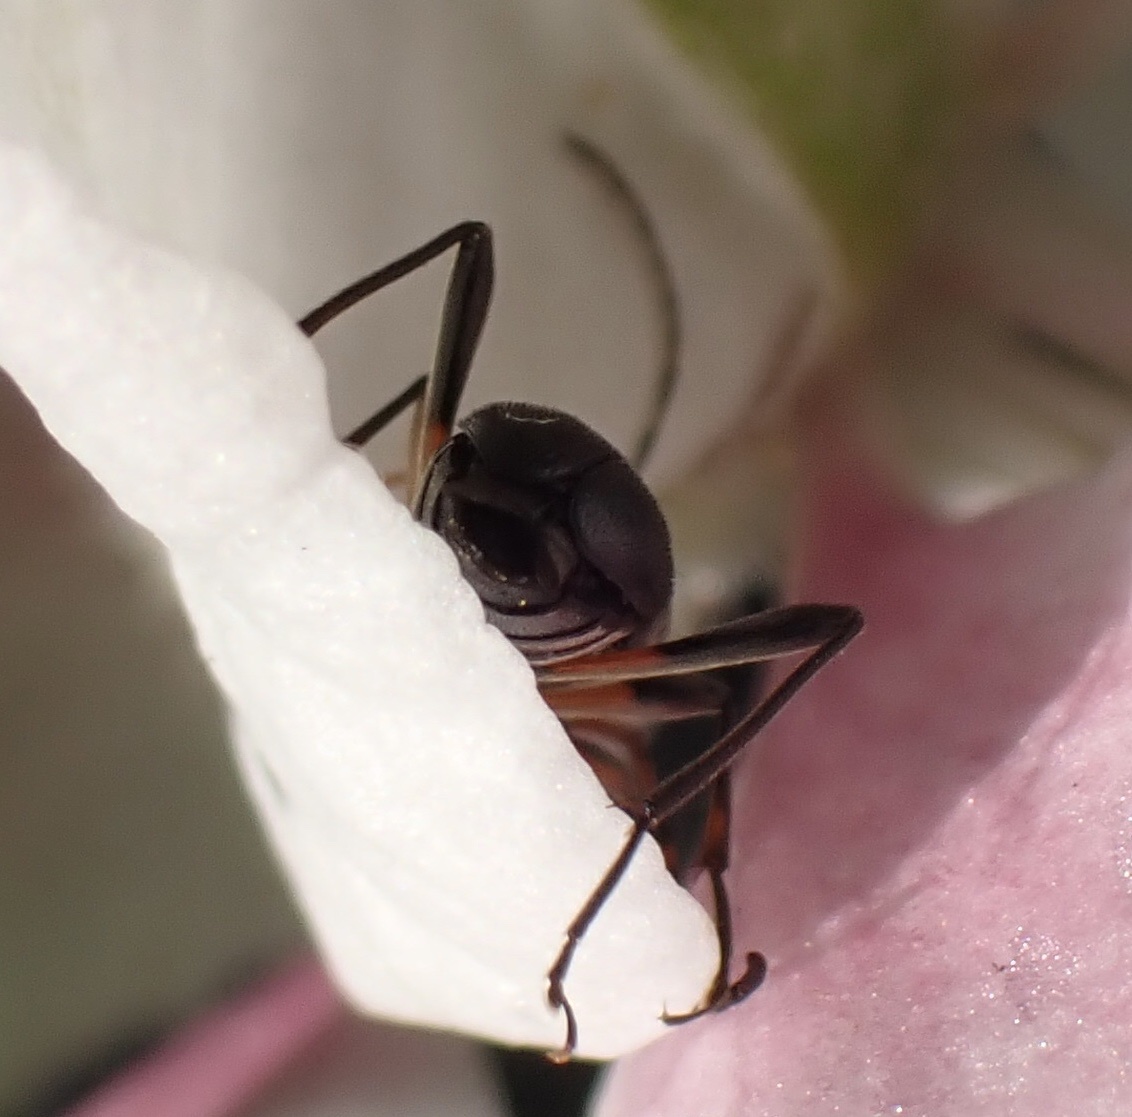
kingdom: Animalia
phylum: Arthropoda
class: Insecta
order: Coleoptera
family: Cerambycidae
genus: Grammoptera
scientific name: Grammoptera ruficornis
